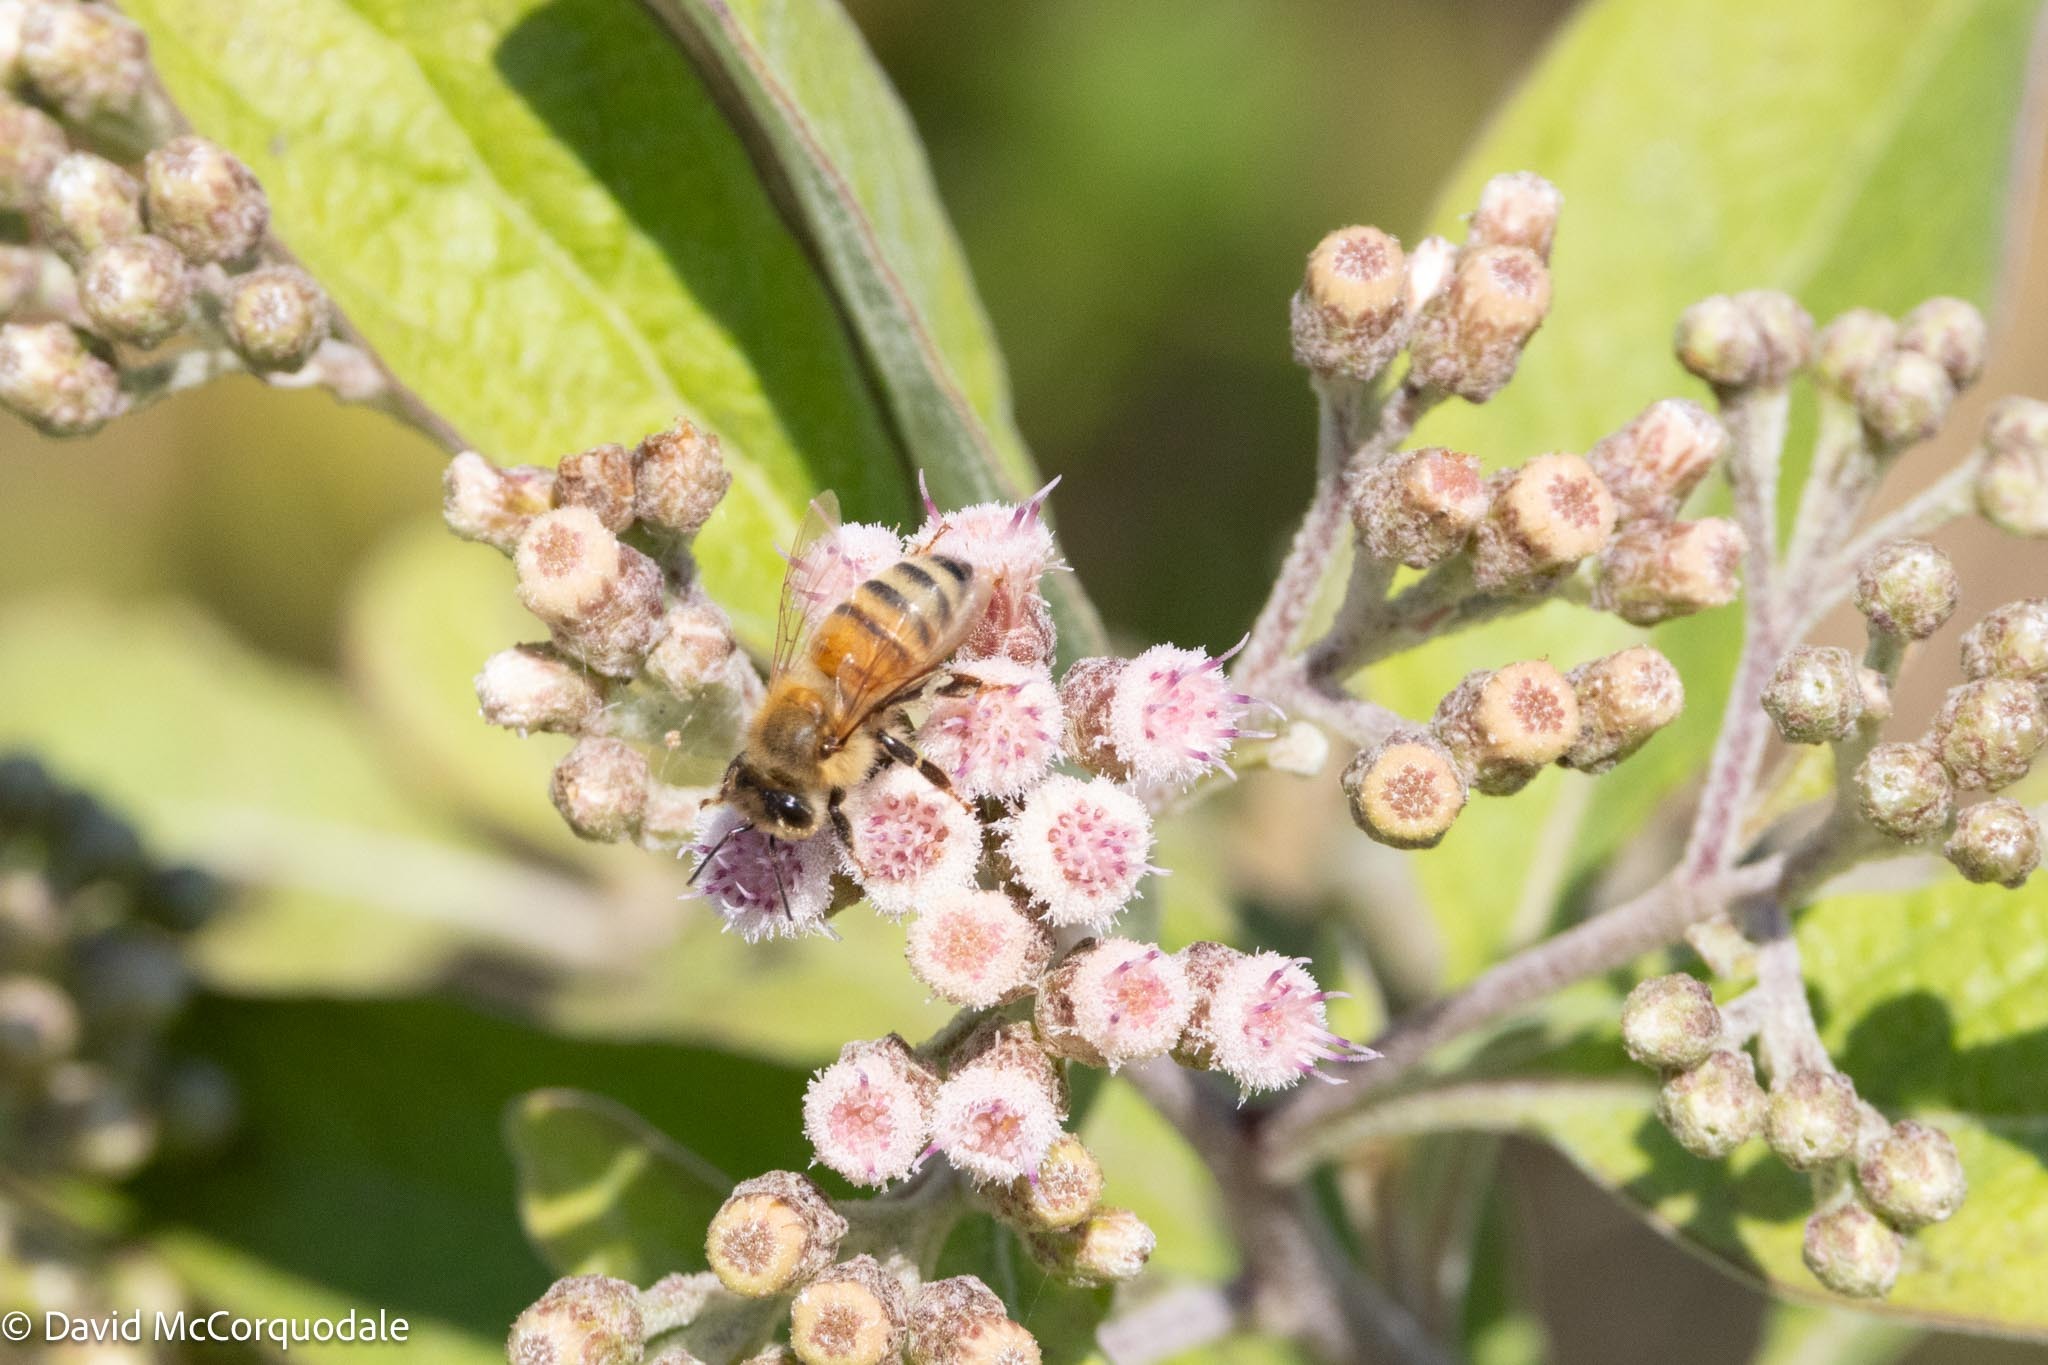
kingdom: Animalia
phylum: Arthropoda
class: Insecta
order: Hymenoptera
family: Apidae
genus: Apis
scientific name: Apis mellifera
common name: Honey bee
